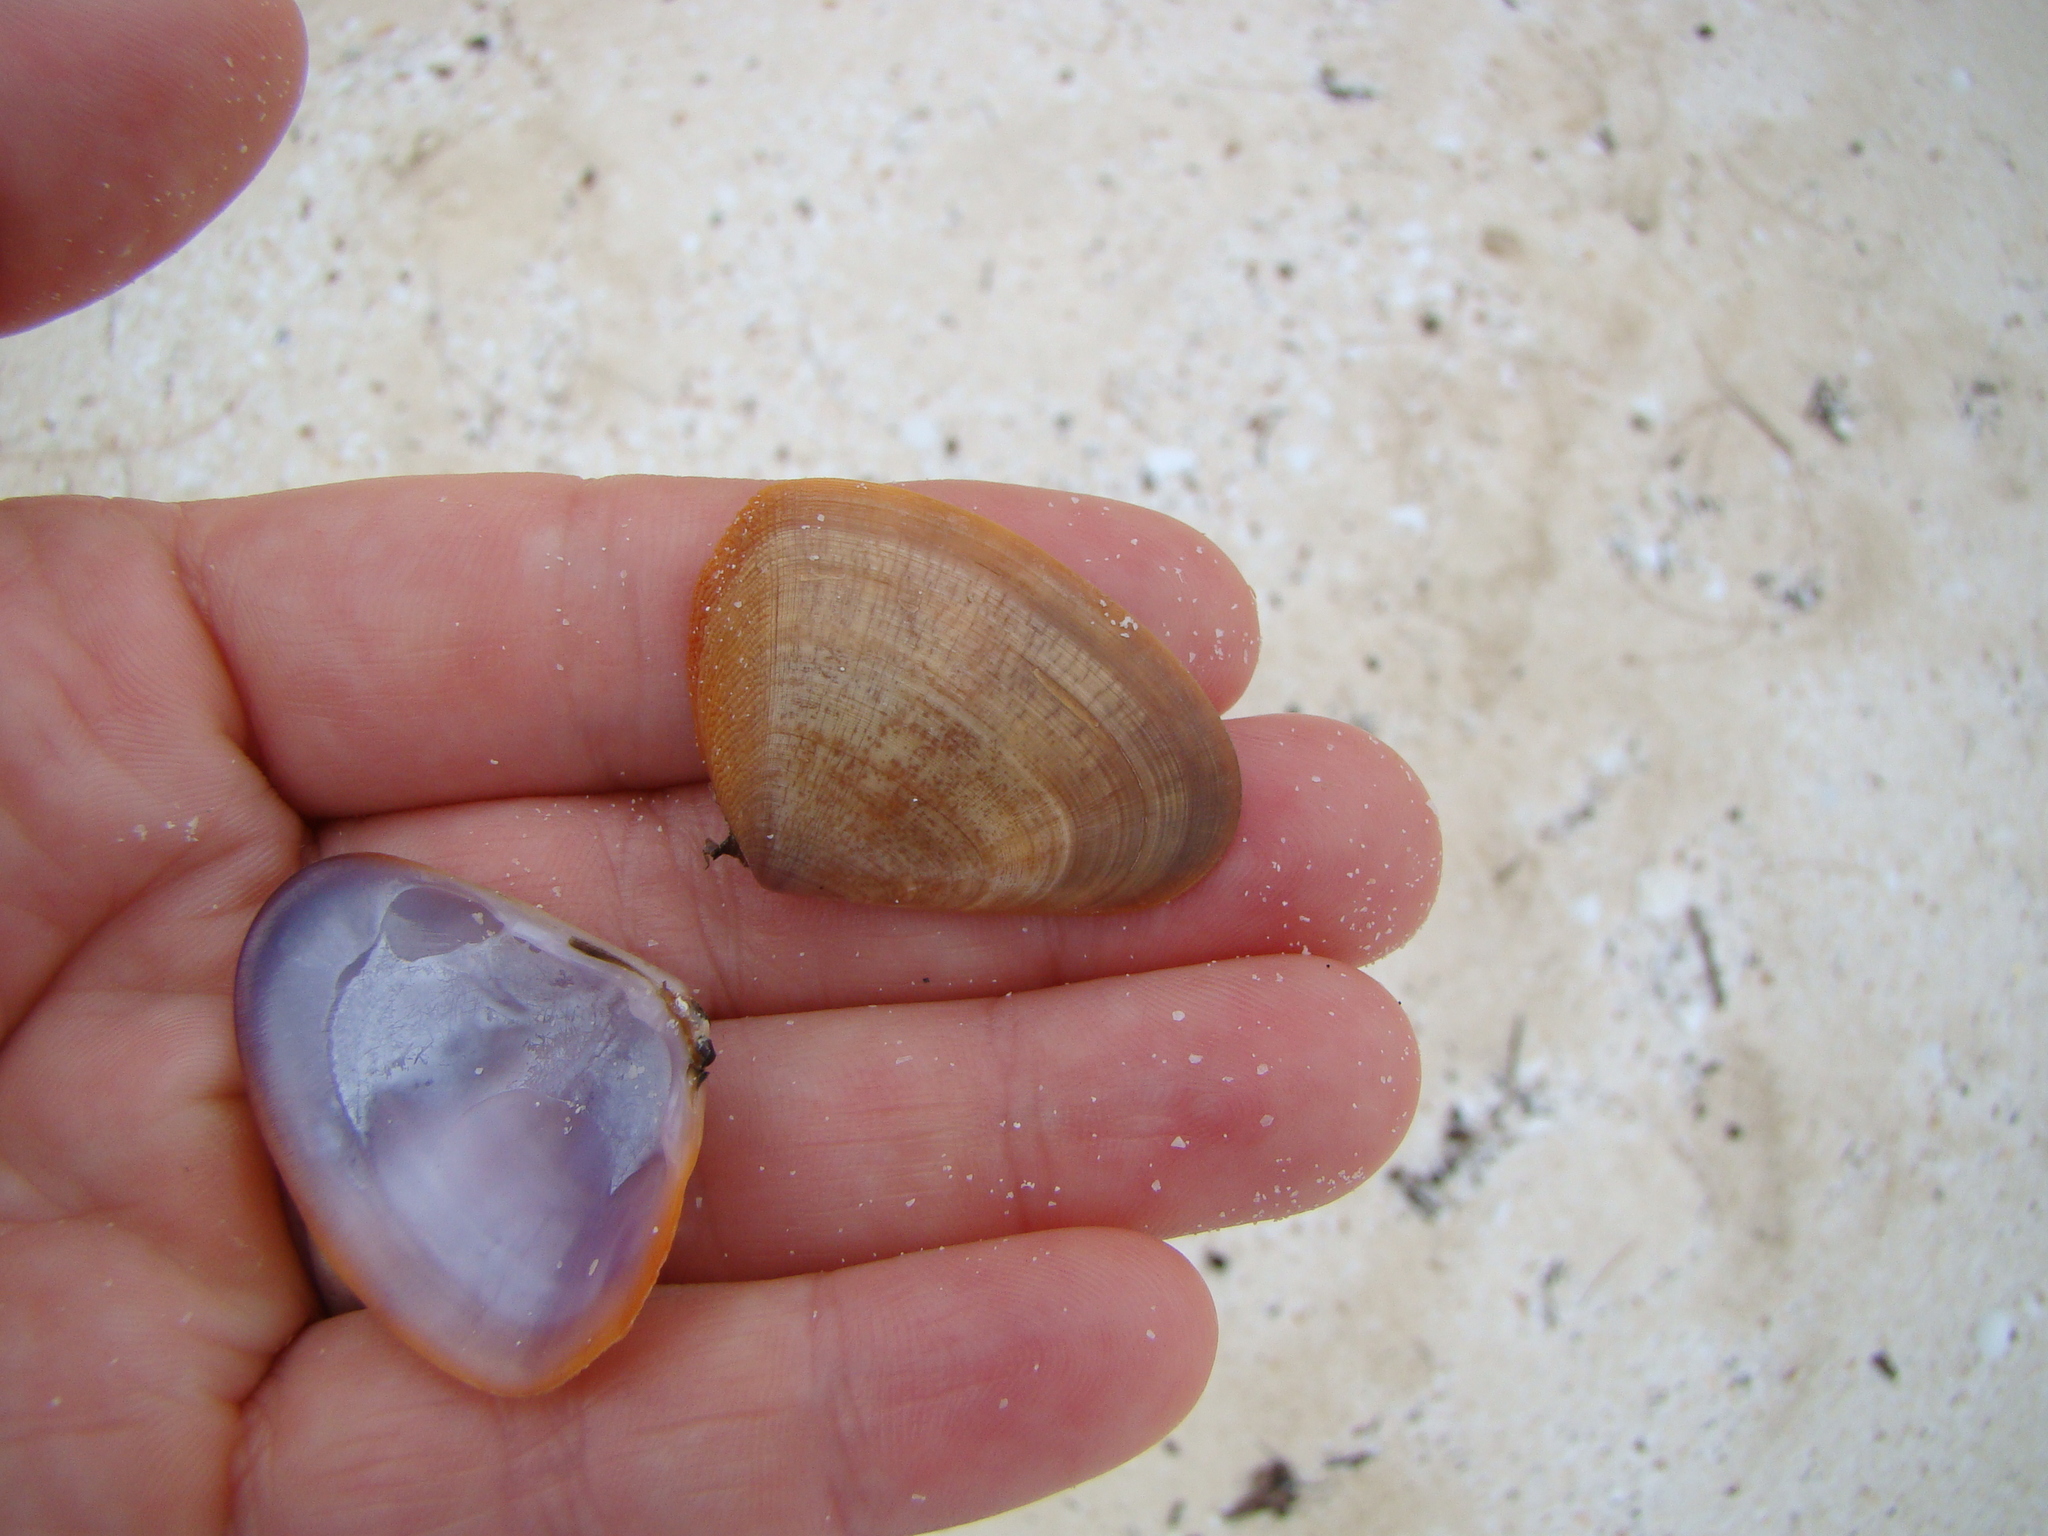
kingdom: Animalia
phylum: Mollusca
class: Bivalvia
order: Cardiida
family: Donacidae
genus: Latona
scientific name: Latona cuneata
